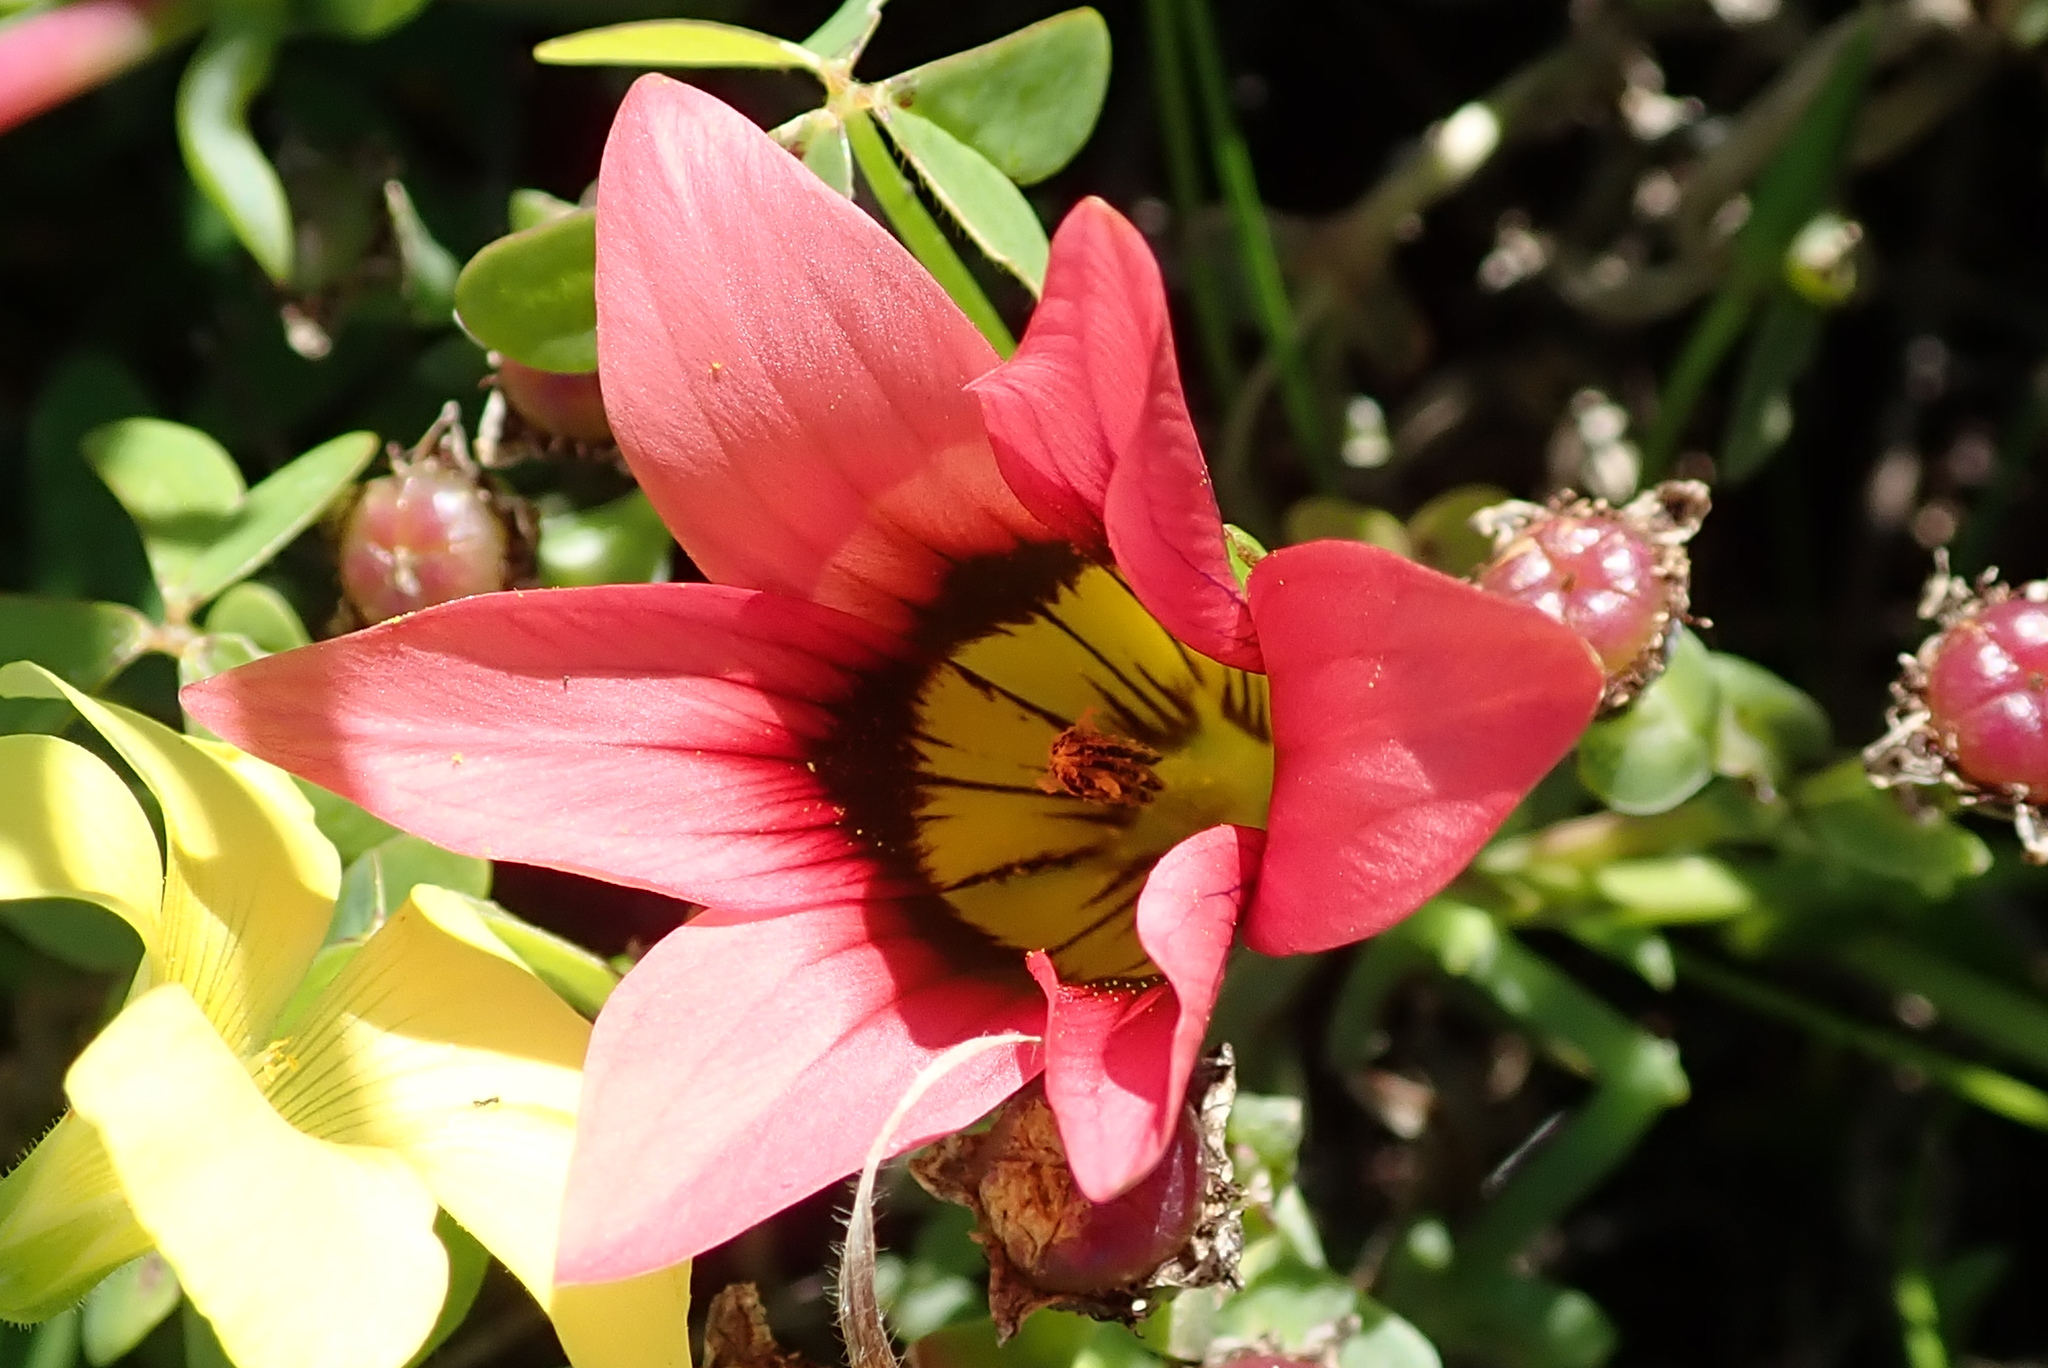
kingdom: Plantae
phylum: Tracheophyta
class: Liliopsida
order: Asparagales
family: Iridaceae
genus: Romulea
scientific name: Romulea hirsuta
